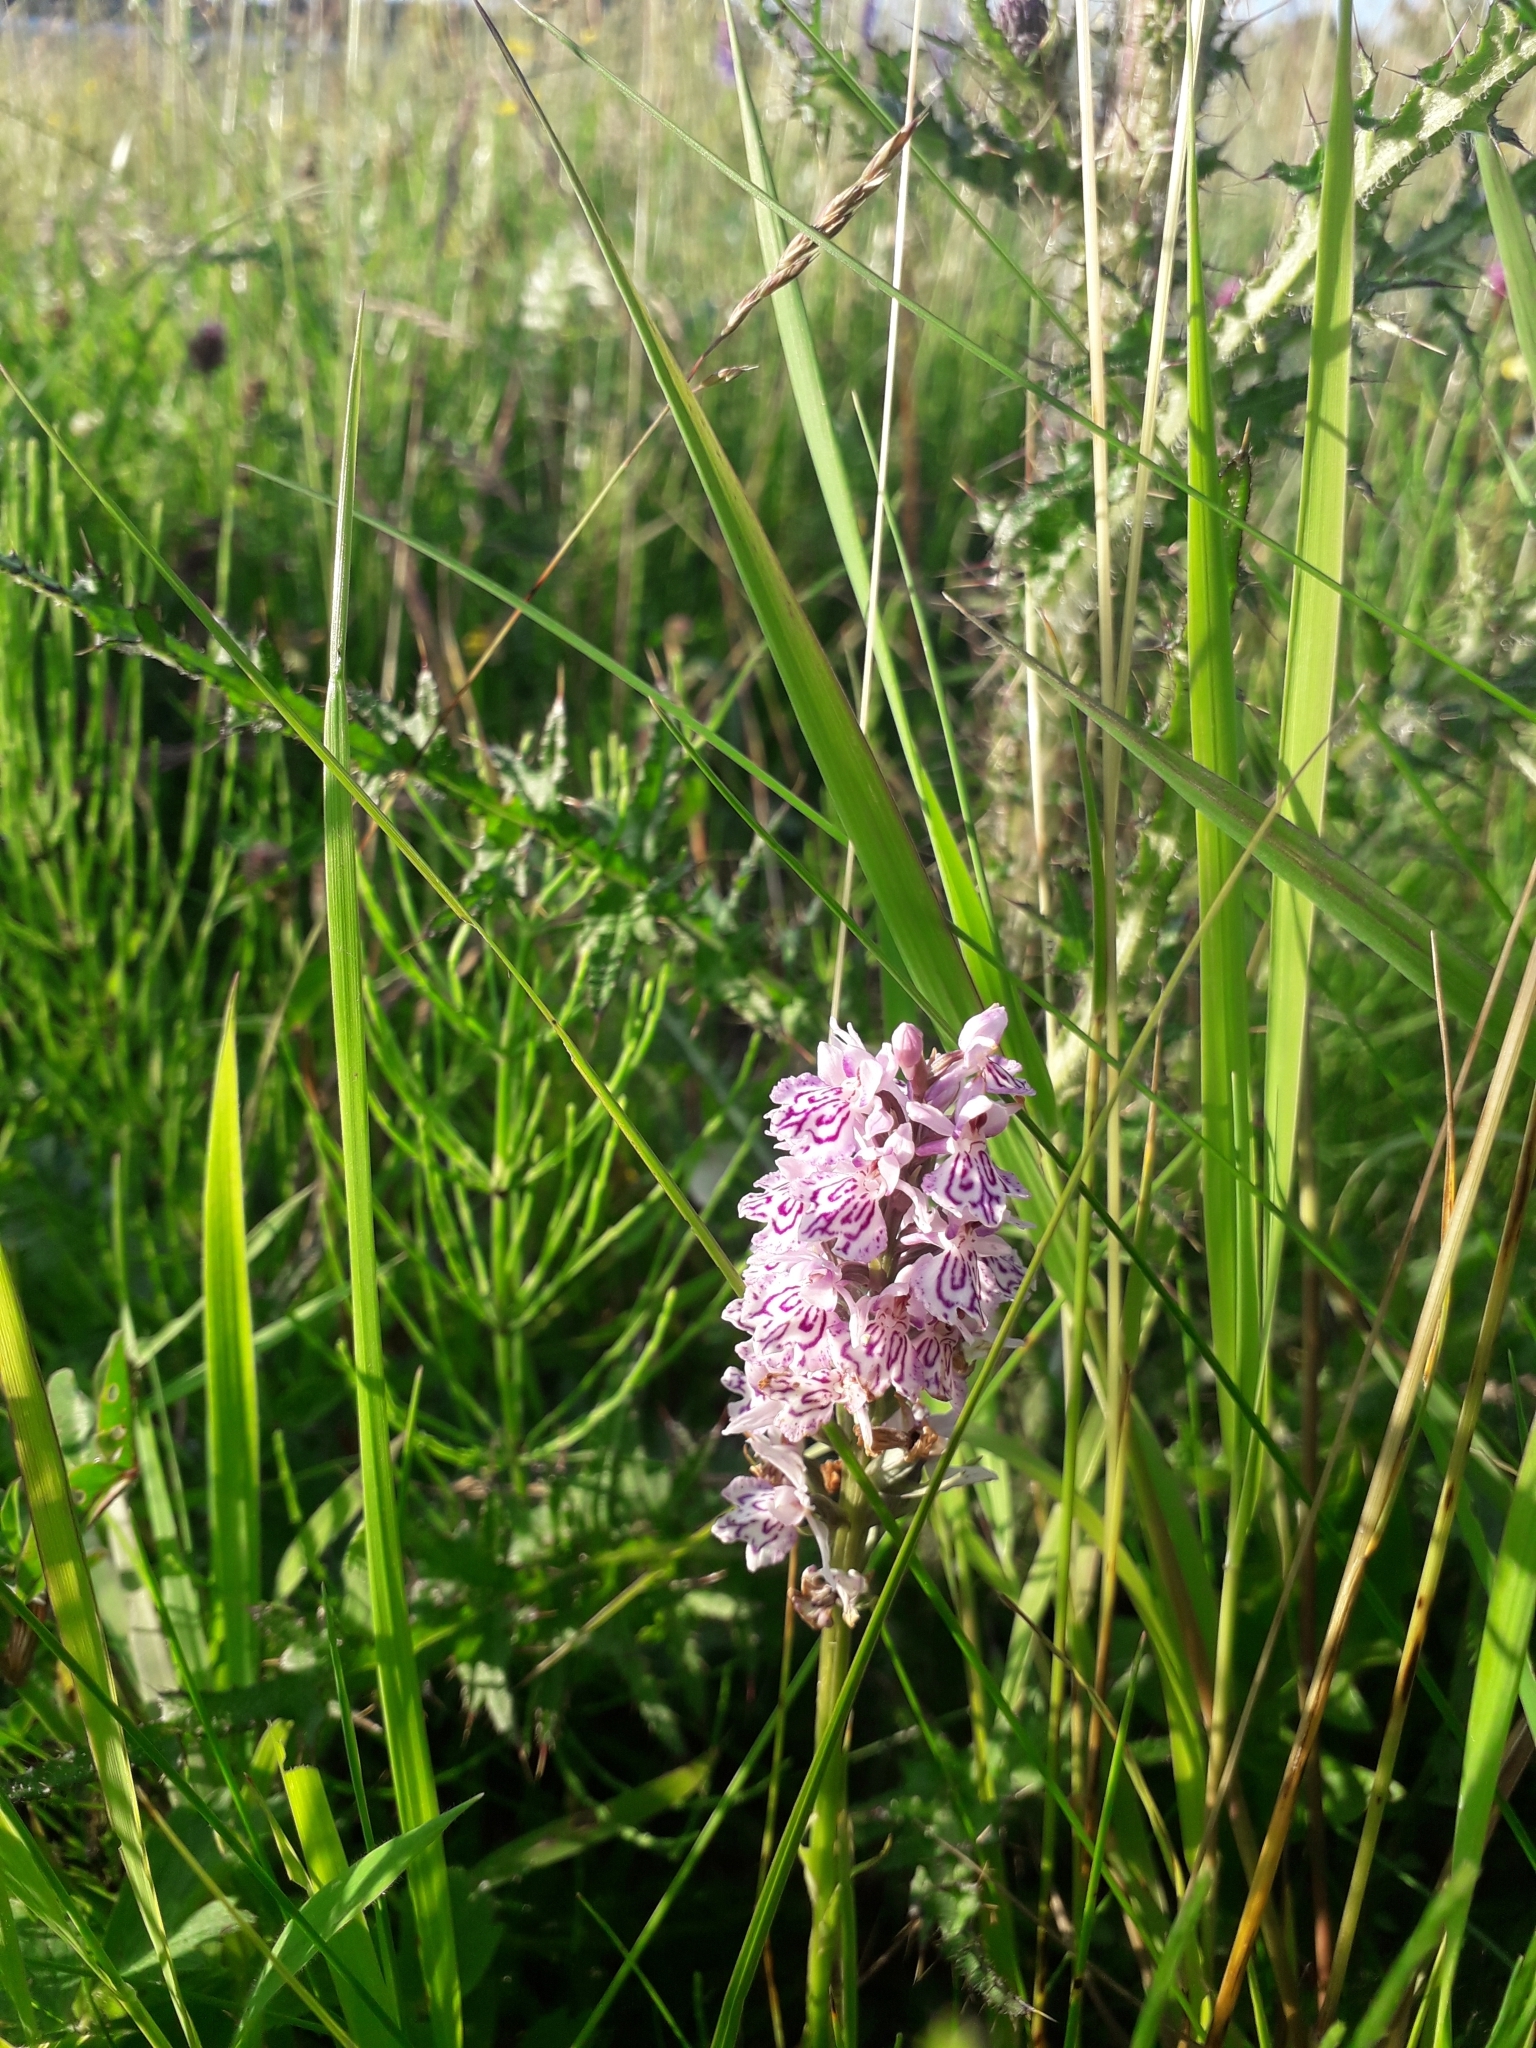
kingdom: Plantae
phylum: Tracheophyta
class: Liliopsida
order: Asparagales
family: Orchidaceae
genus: Dactylorhiza
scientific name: Dactylorhiza maculata
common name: Heath spotted-orchid
